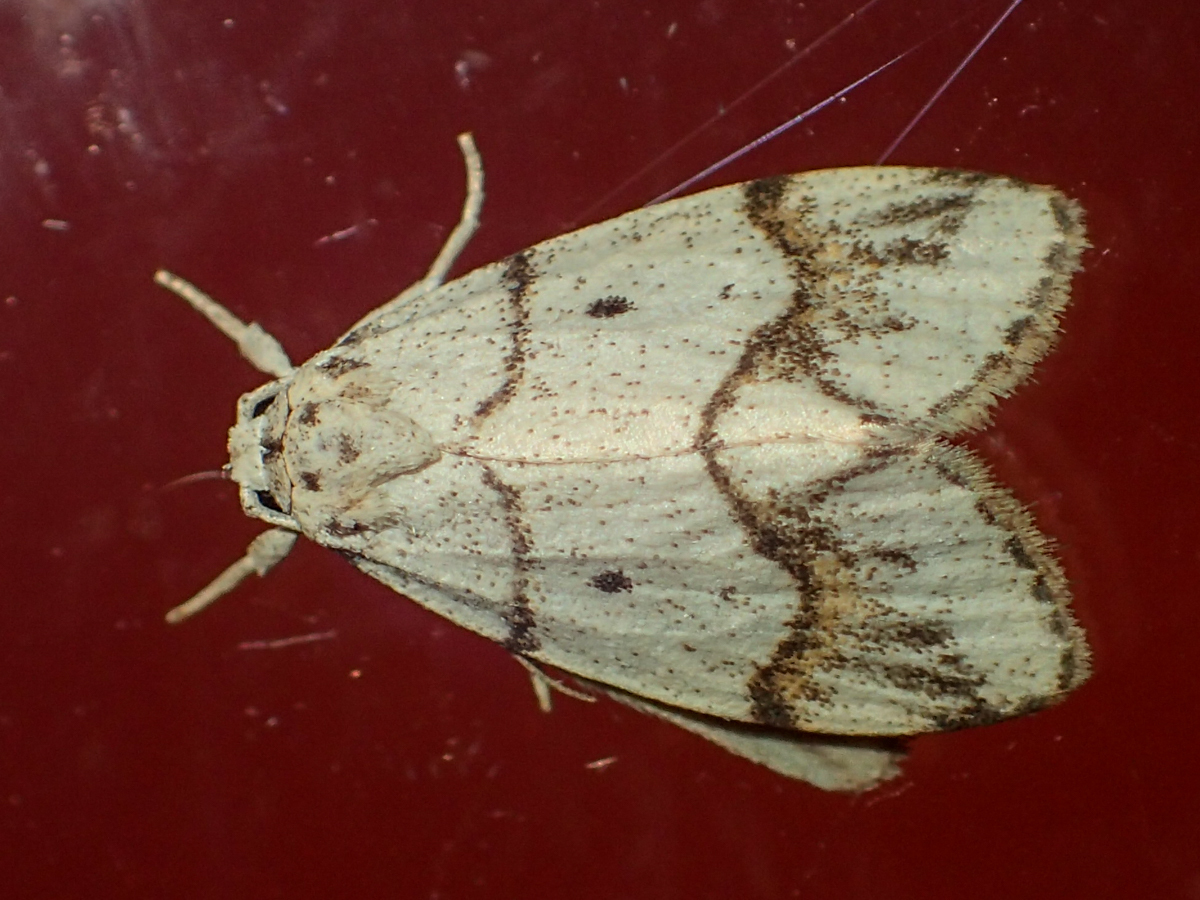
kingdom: Animalia
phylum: Arthropoda
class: Insecta
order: Lepidoptera
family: Erebidae
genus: Holocraspedon
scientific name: Holocraspedon bilineata
